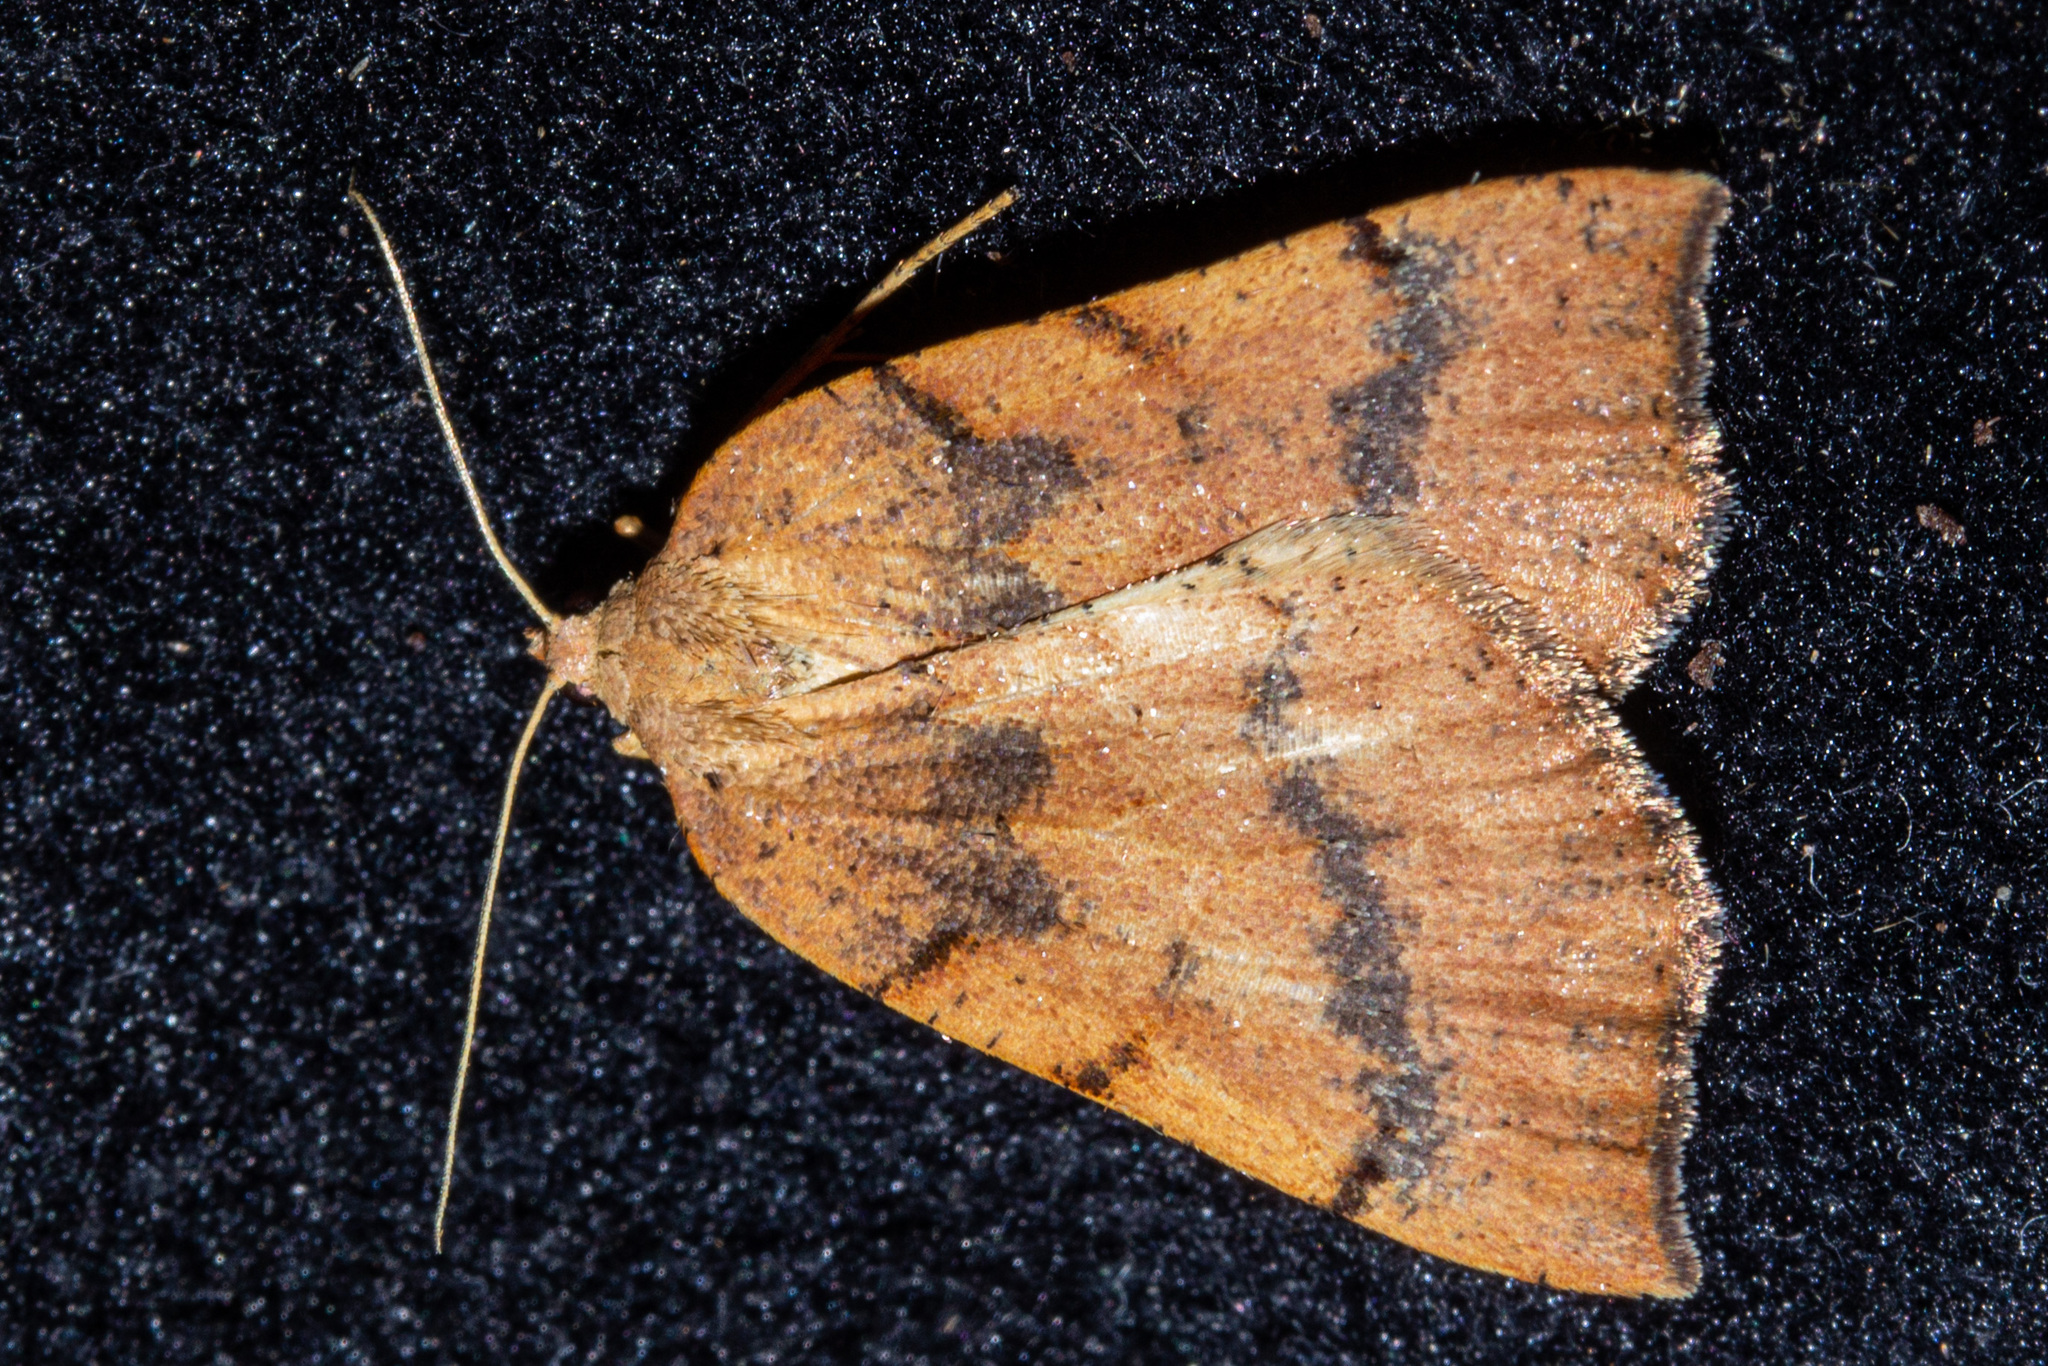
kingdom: Animalia
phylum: Arthropoda
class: Insecta
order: Lepidoptera
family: Geometridae
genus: Sestra
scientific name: Sestra humeraria
